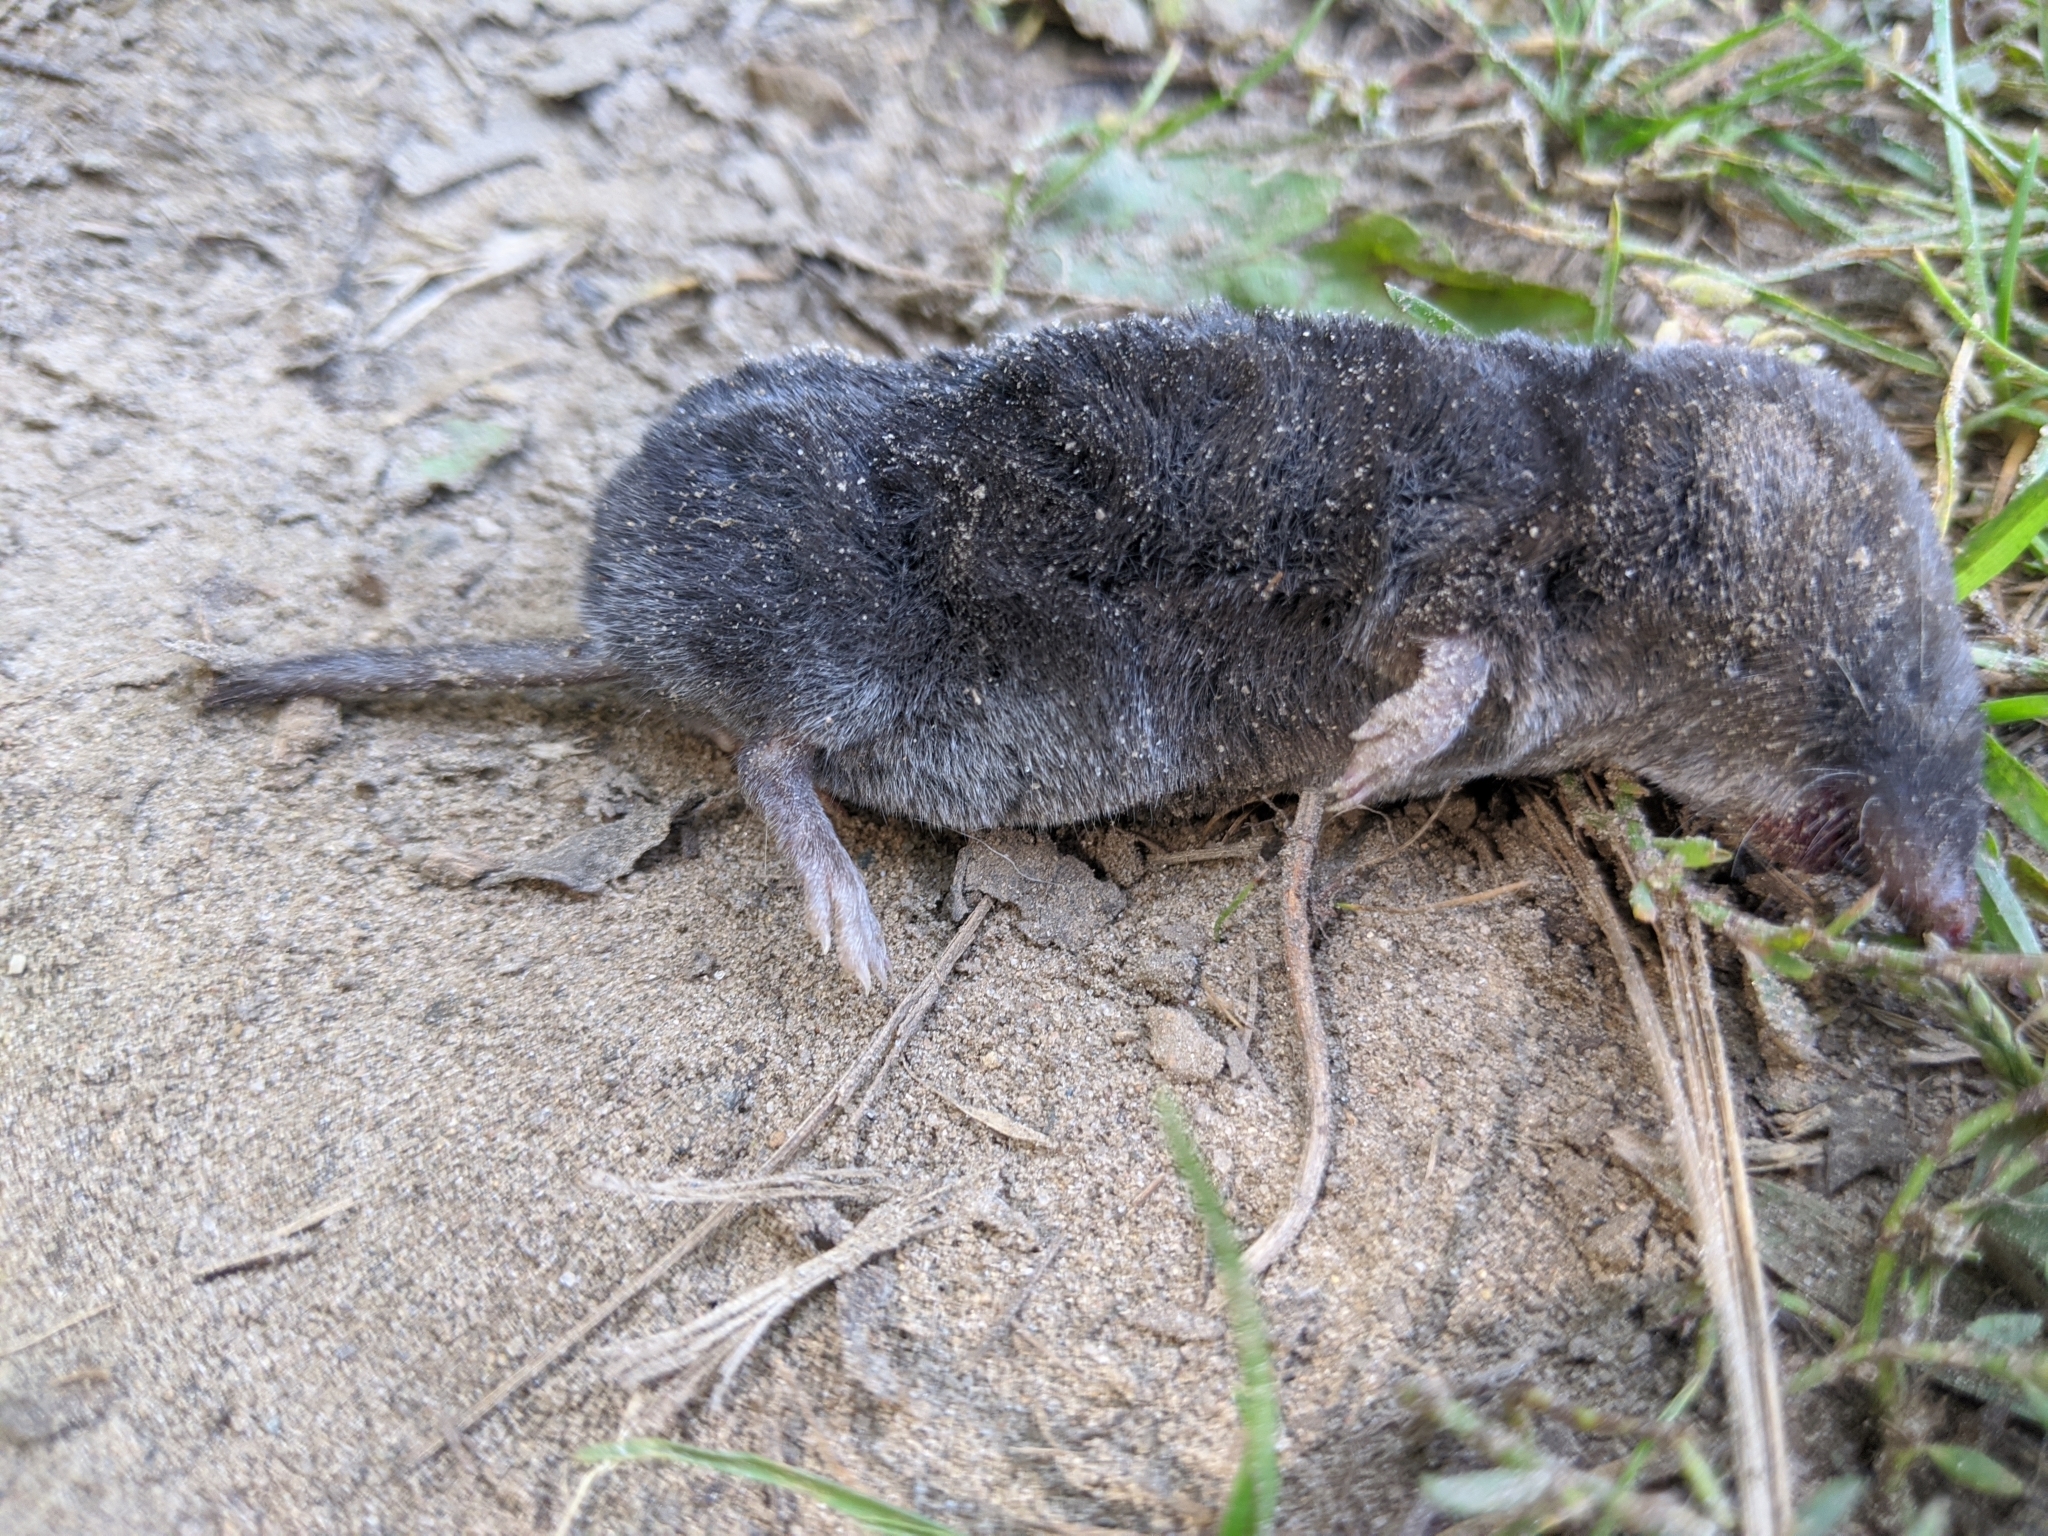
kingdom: Animalia
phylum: Chordata
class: Mammalia
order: Soricomorpha
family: Soricidae
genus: Blarina
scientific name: Blarina brevicauda
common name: Northern short-tailed shrew
